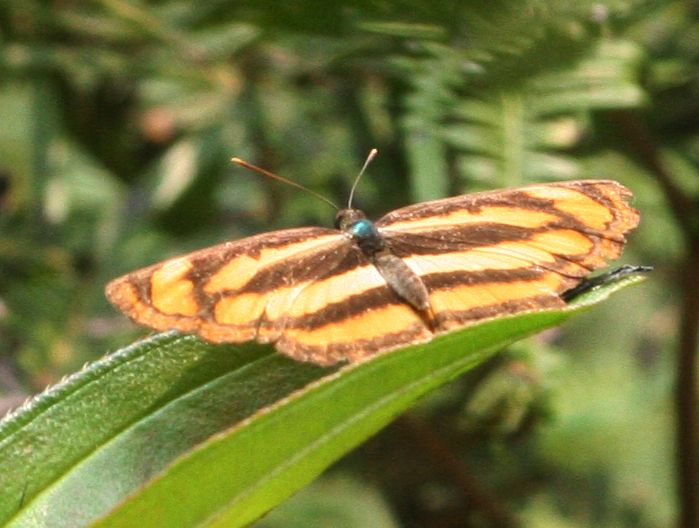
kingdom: Animalia
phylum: Arthropoda
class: Insecta
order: Lepidoptera
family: Nymphalidae
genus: Pantoporia
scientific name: Pantoporia sandaka
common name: Extra lascar
